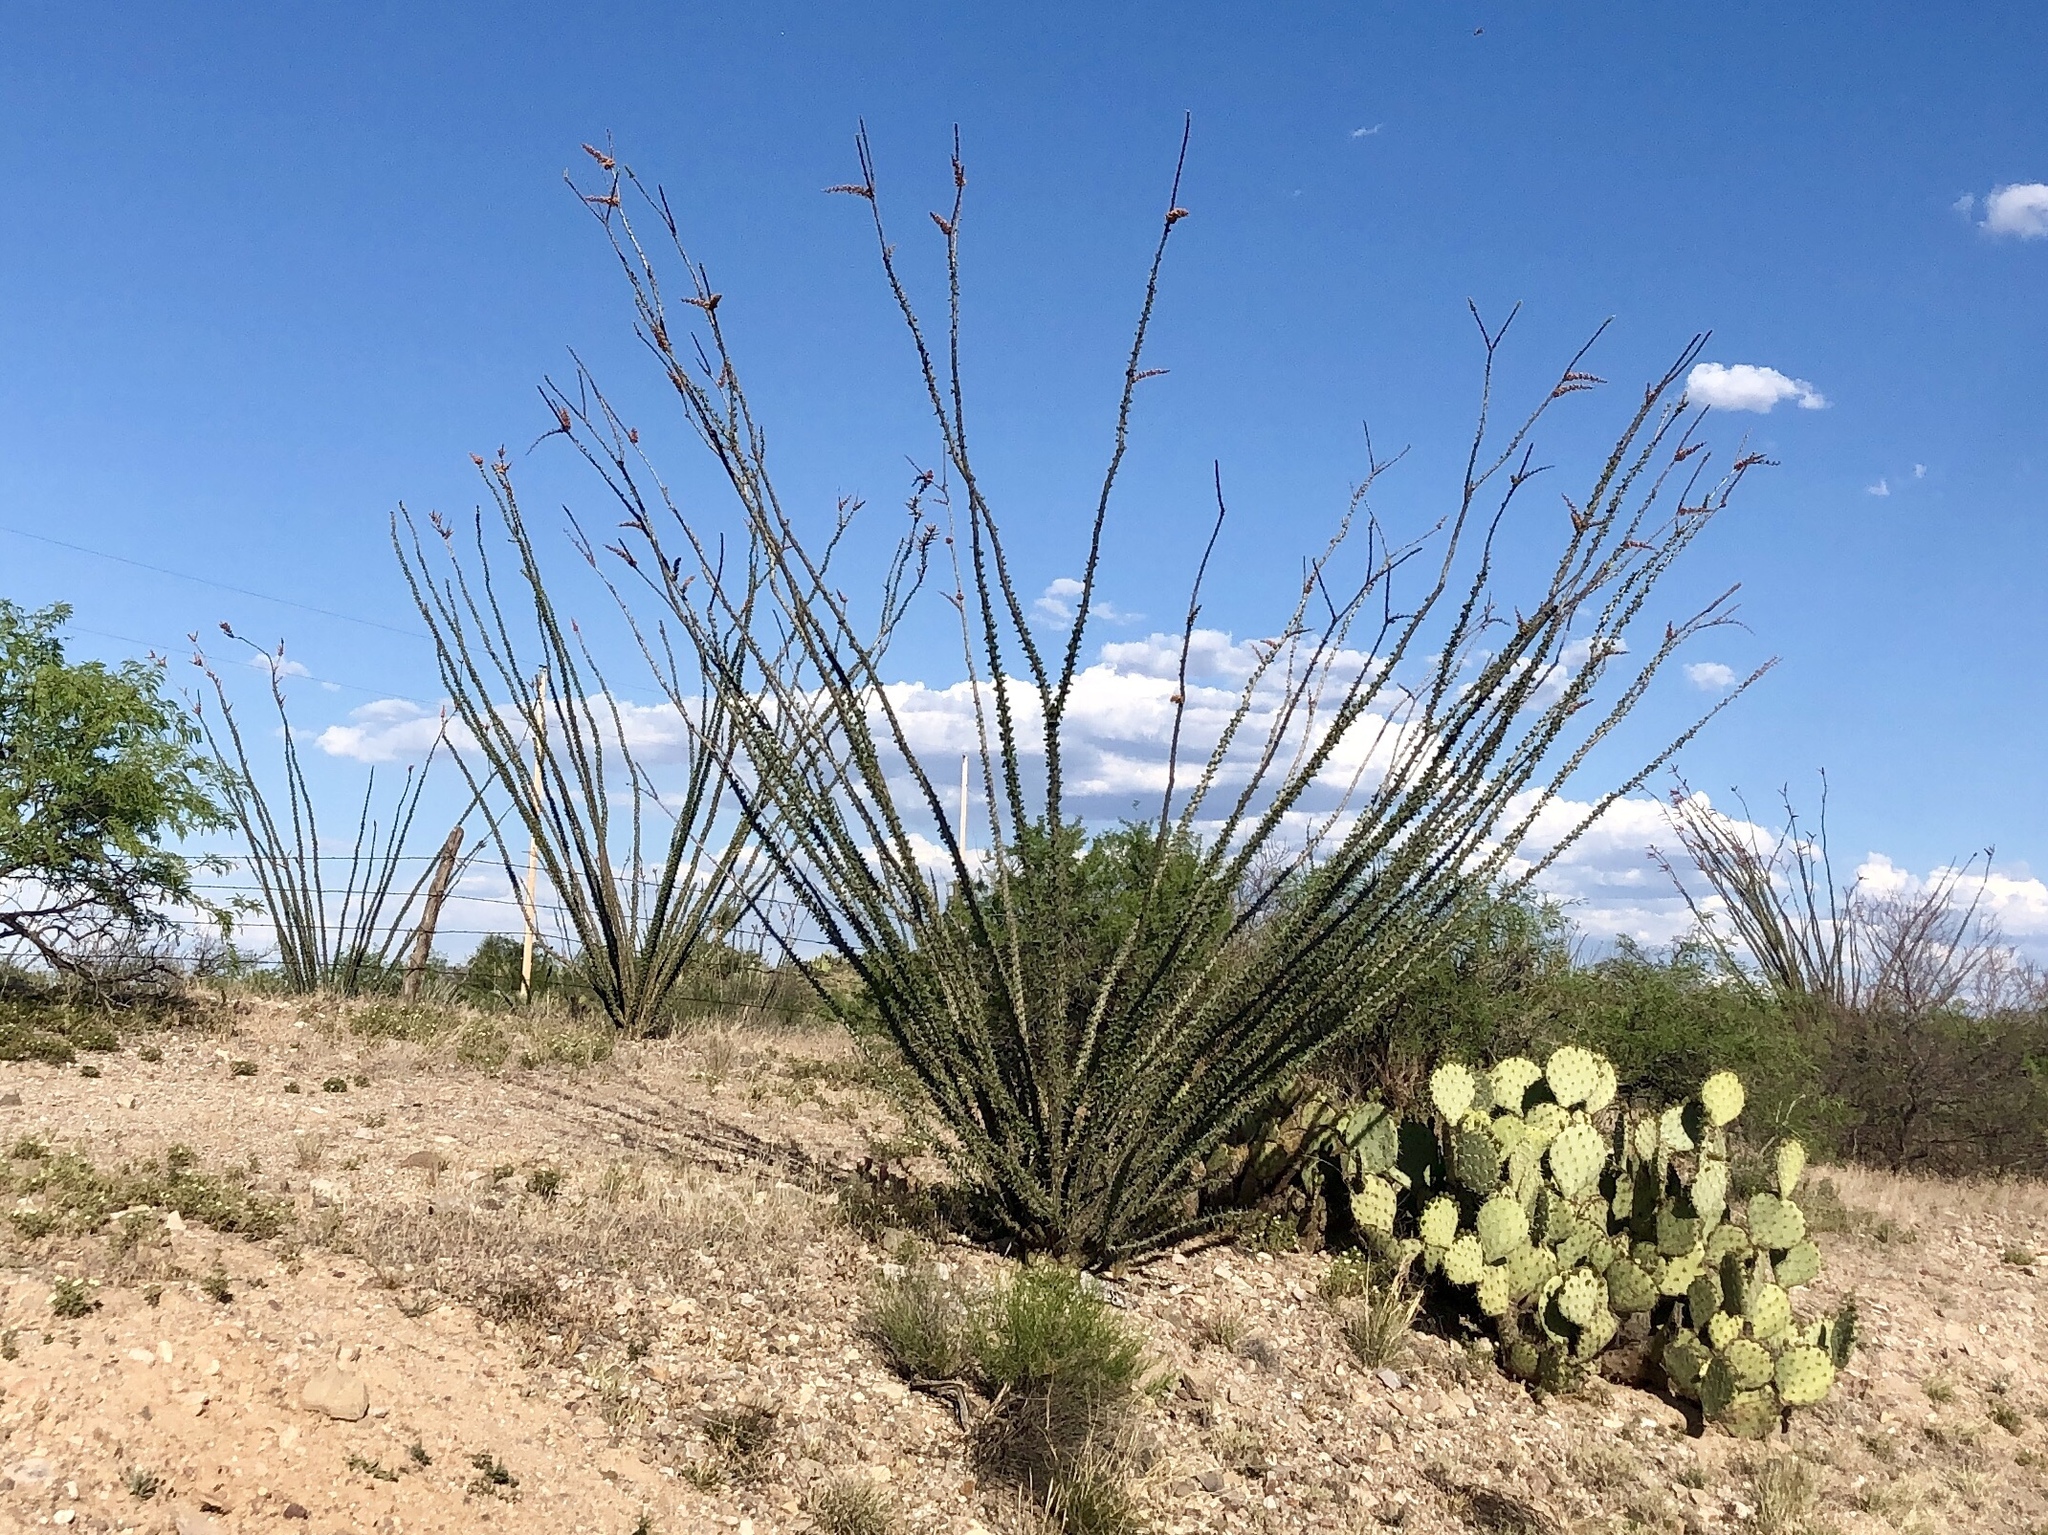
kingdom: Plantae
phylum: Tracheophyta
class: Magnoliopsida
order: Ericales
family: Fouquieriaceae
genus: Fouquieria
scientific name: Fouquieria splendens
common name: Vine-cactus
